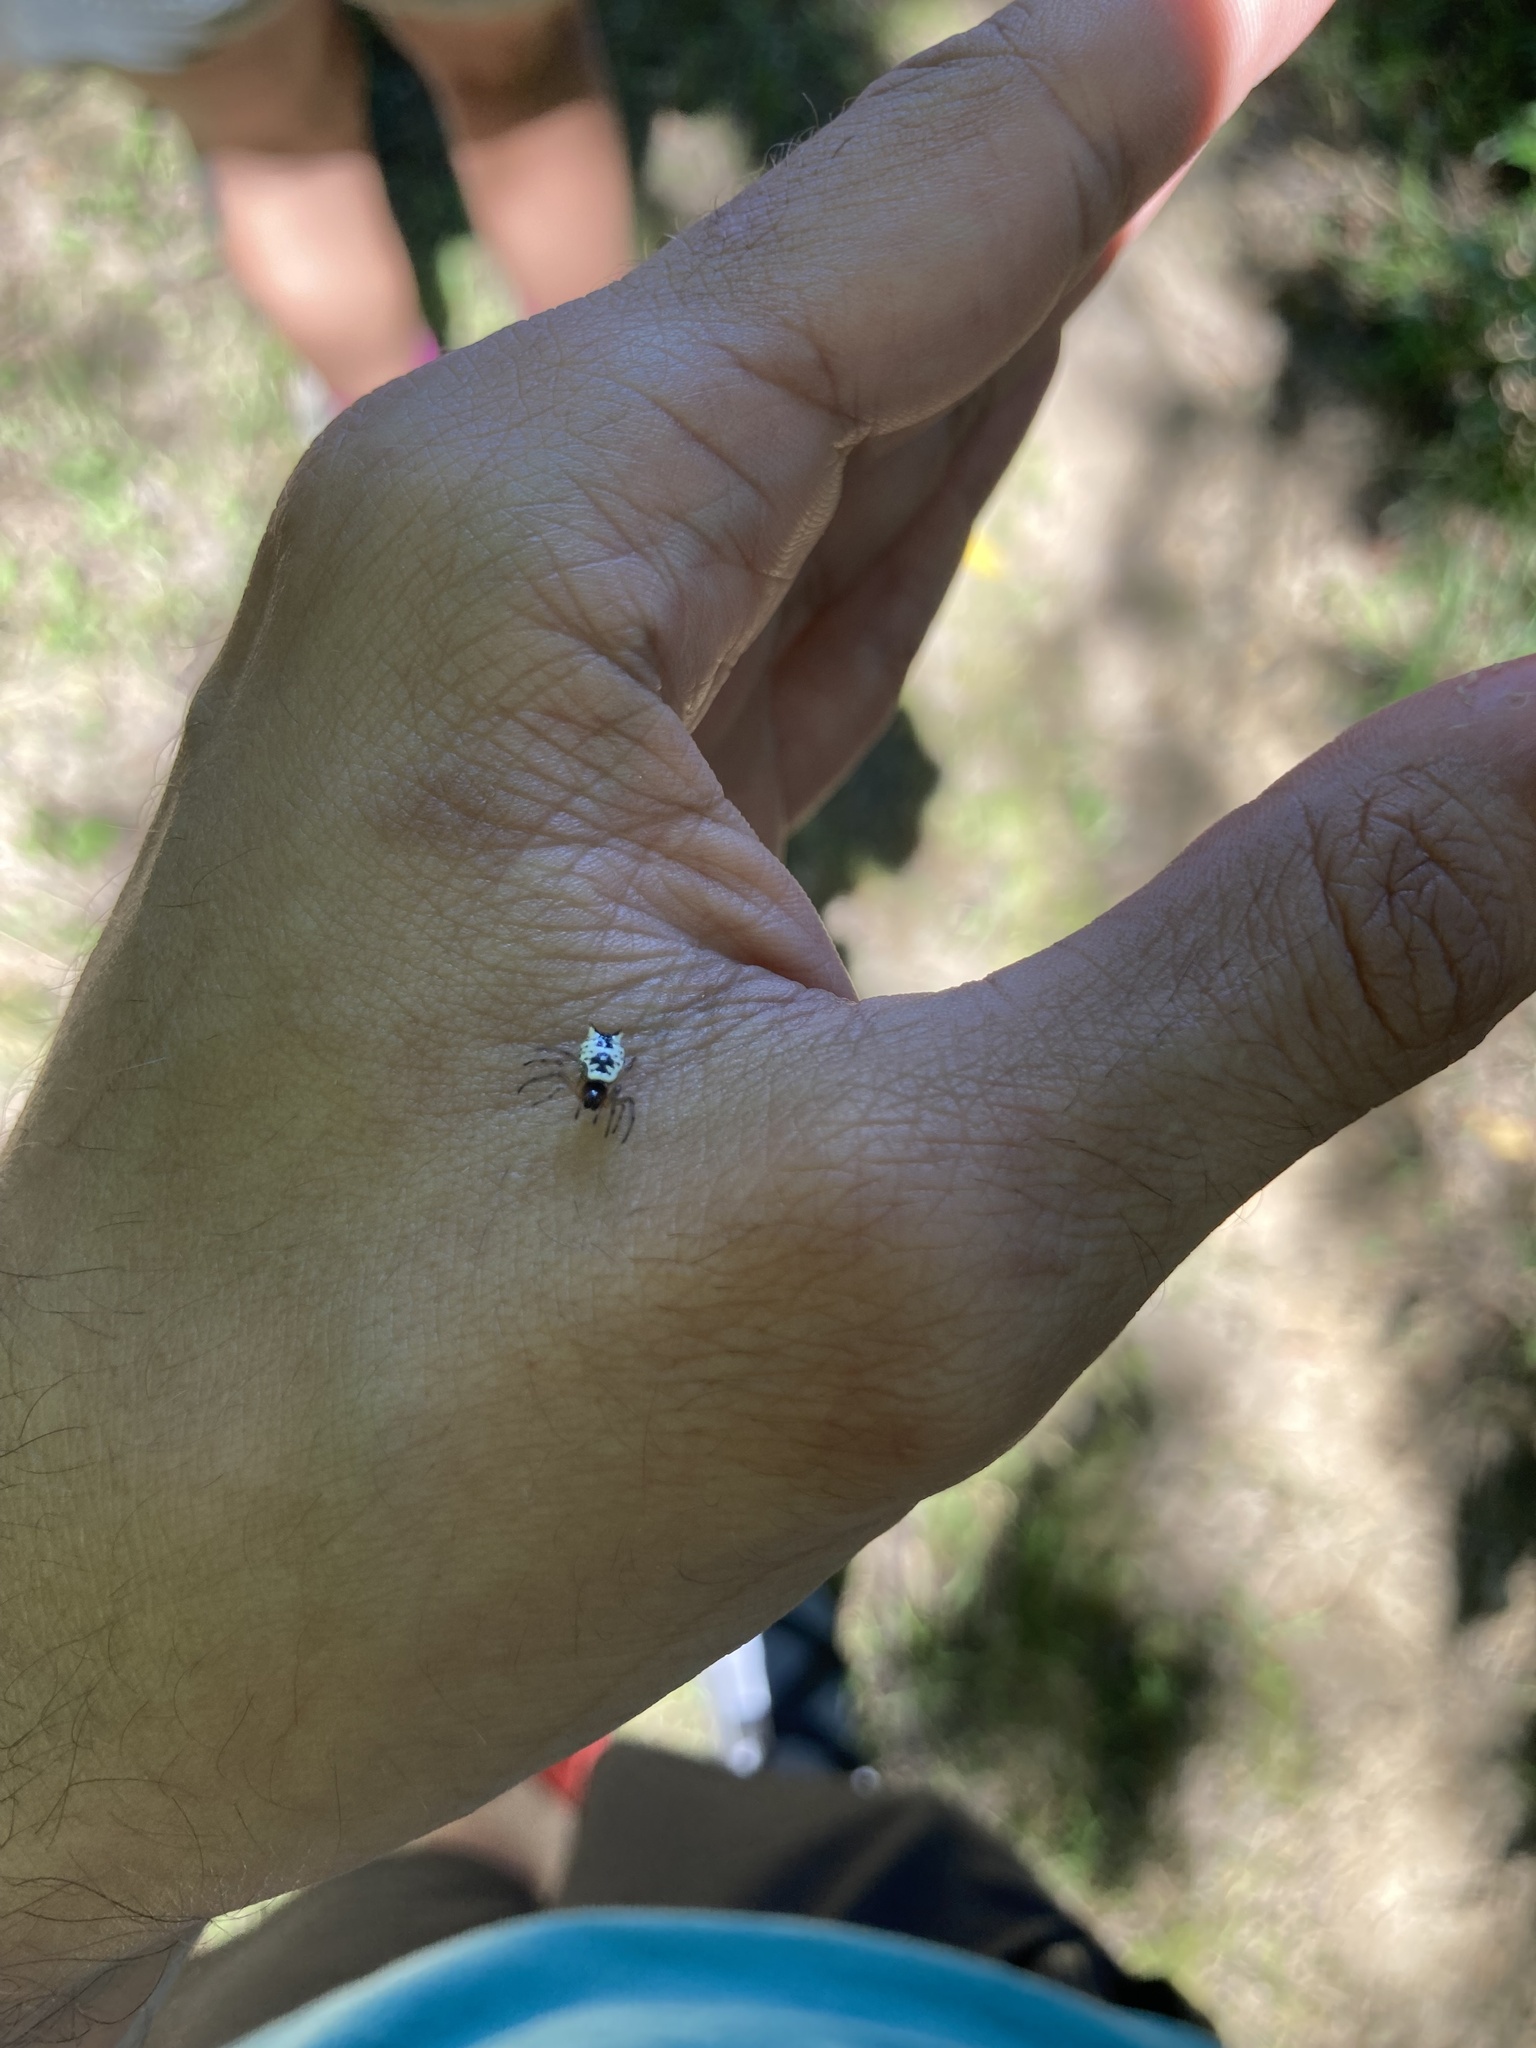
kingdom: Animalia
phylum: Arthropoda
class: Arachnida
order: Araneae
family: Araneidae
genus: Micrathena
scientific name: Micrathena mitrata
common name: Orb weavers
